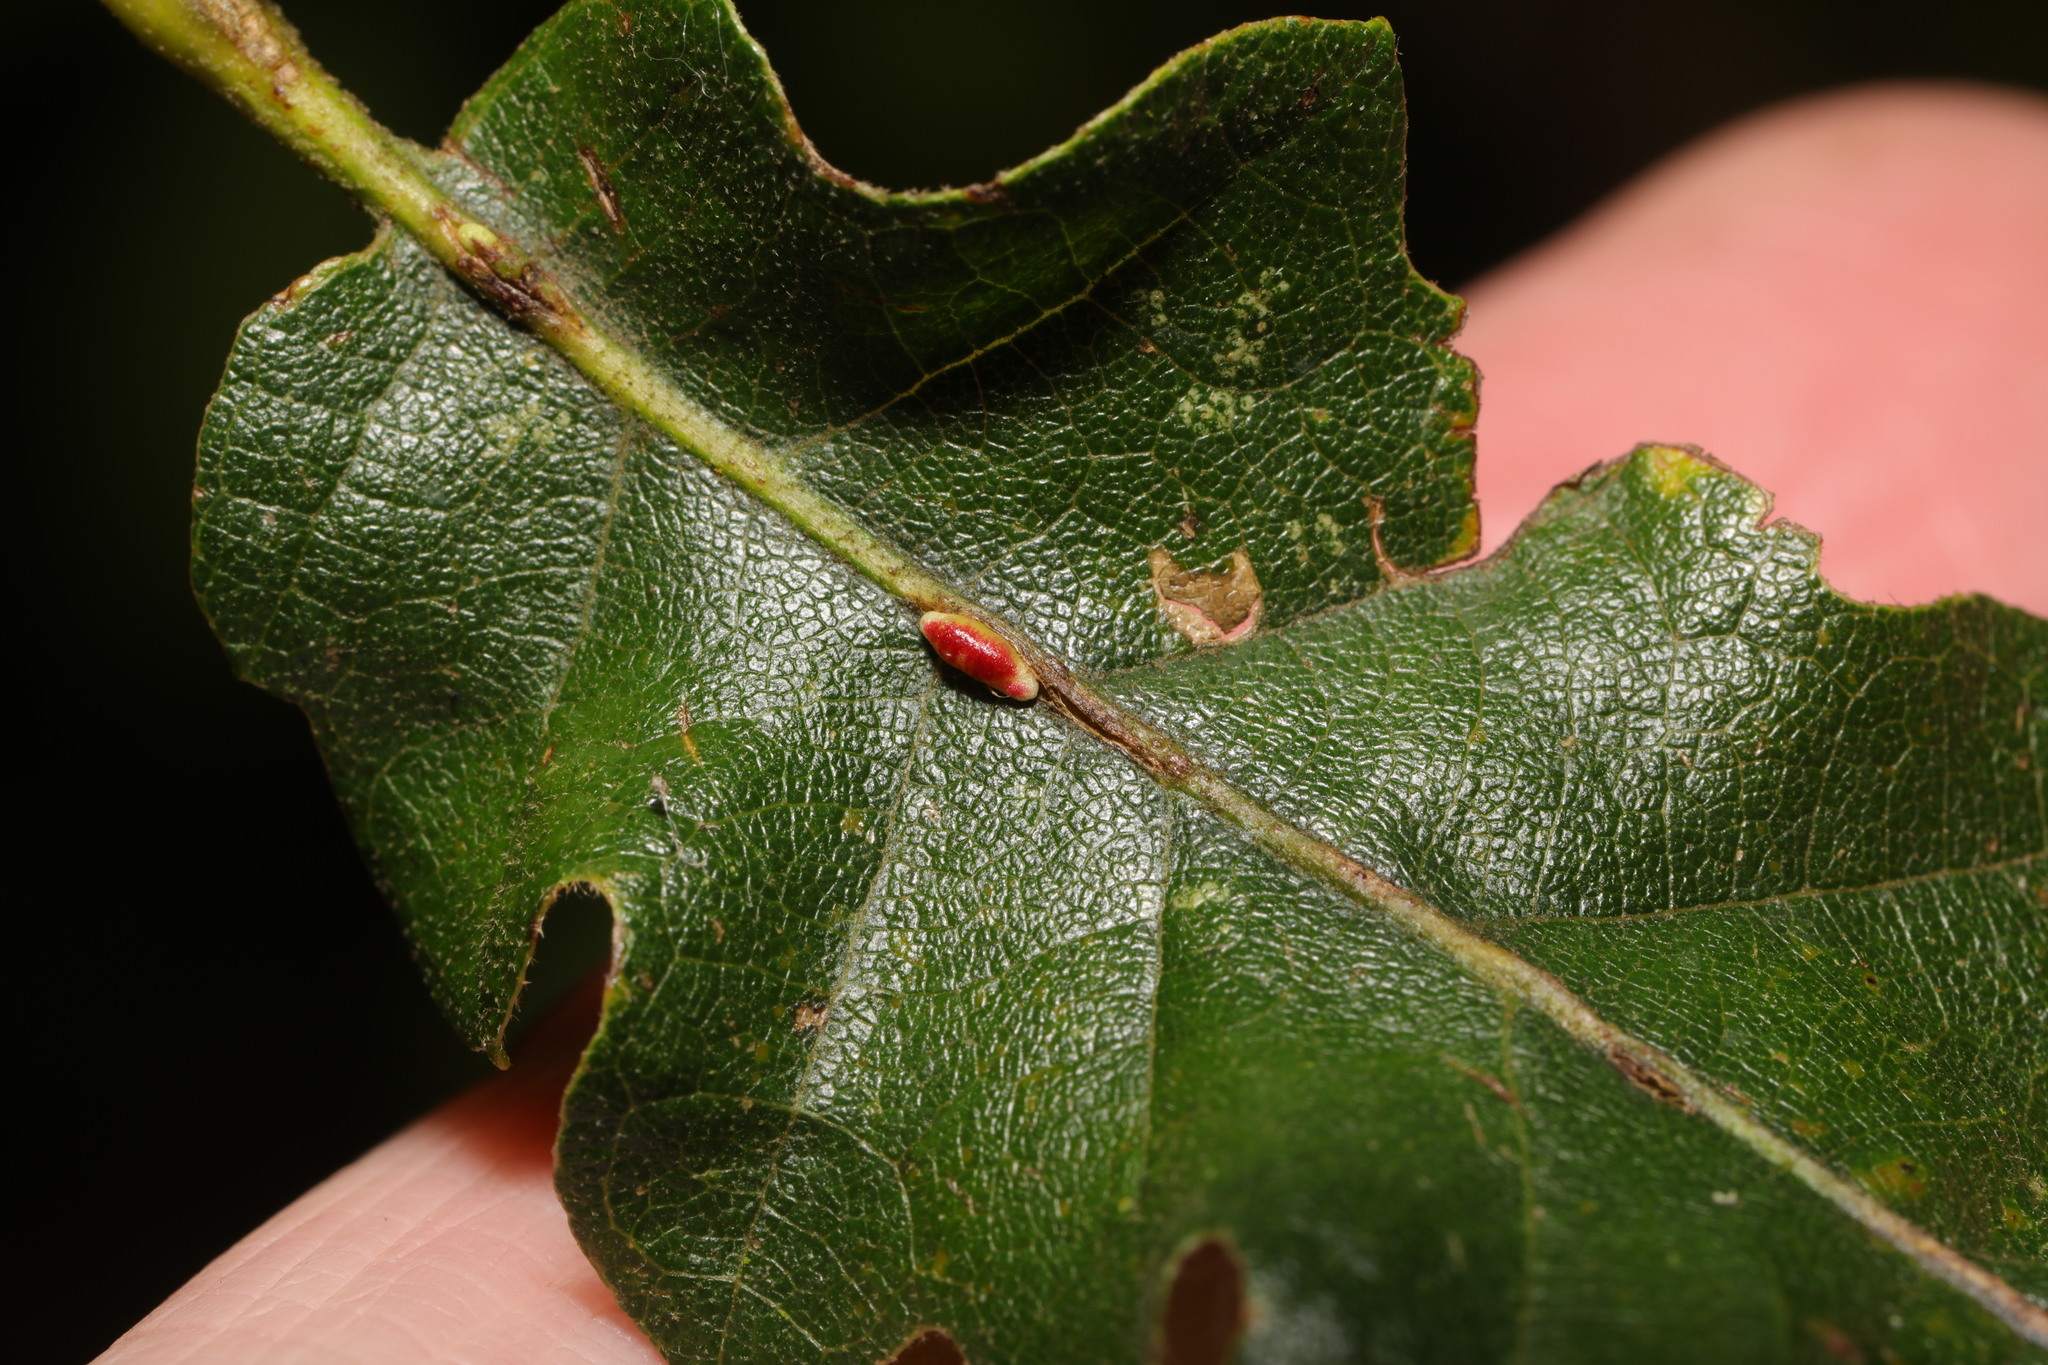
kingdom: Animalia
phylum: Arthropoda
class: Insecta
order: Hymenoptera
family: Cynipidae
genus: Neuroterus
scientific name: Neuroterus saliens
